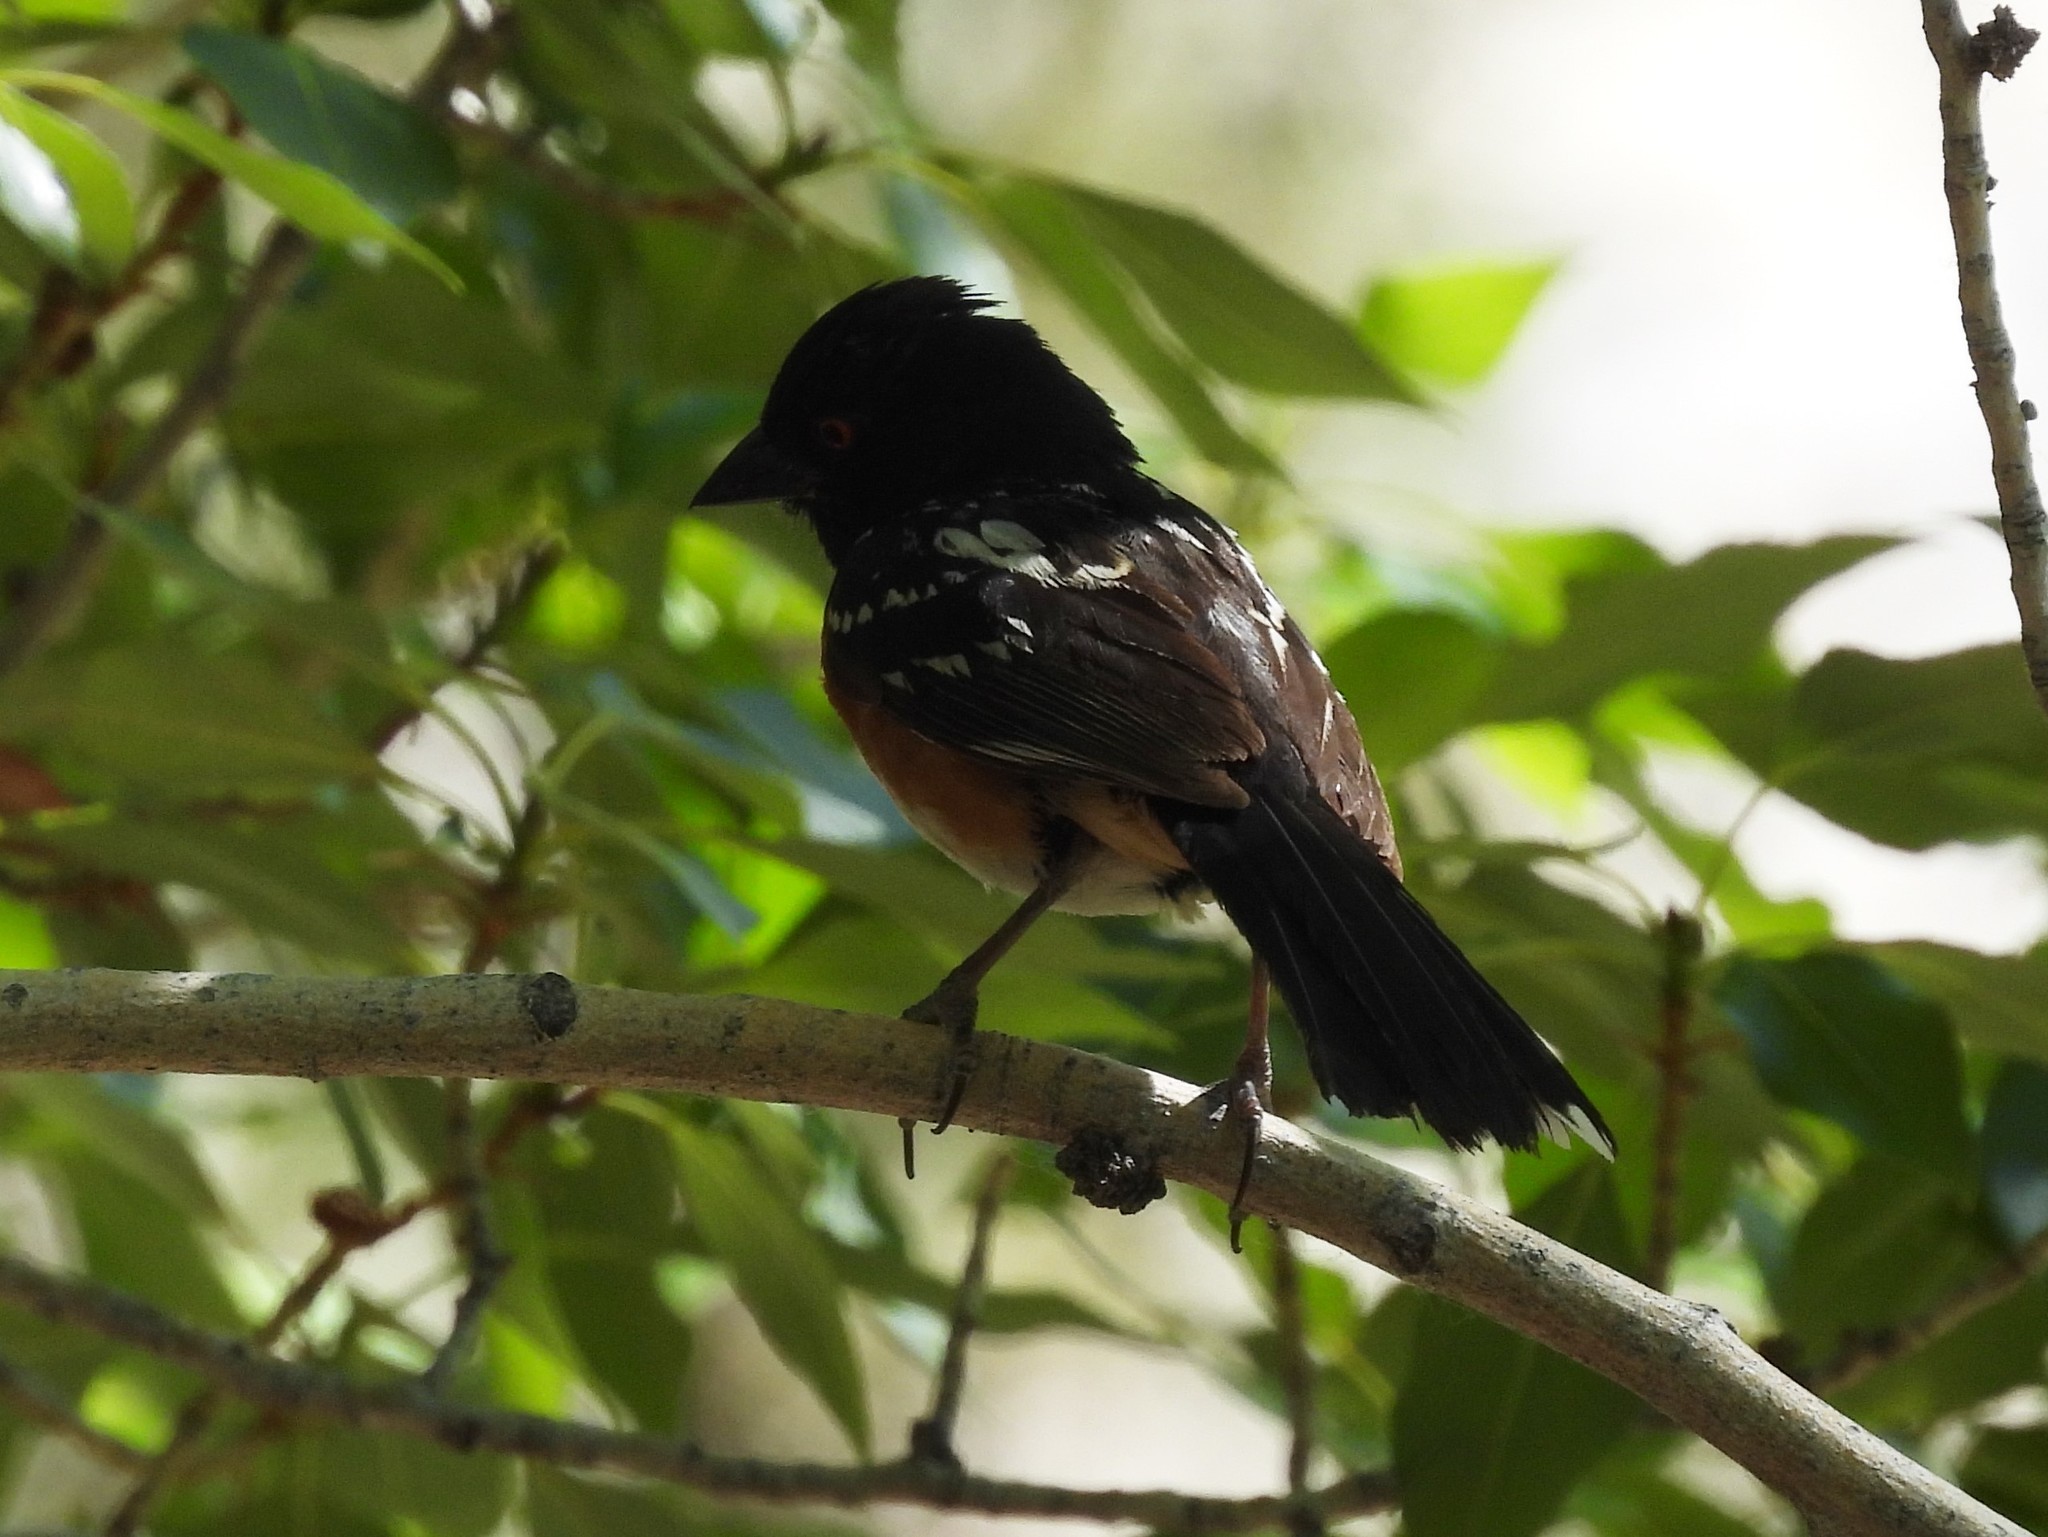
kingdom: Animalia
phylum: Chordata
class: Aves
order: Passeriformes
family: Passerellidae
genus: Pipilo
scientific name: Pipilo maculatus
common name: Spotted towhee
